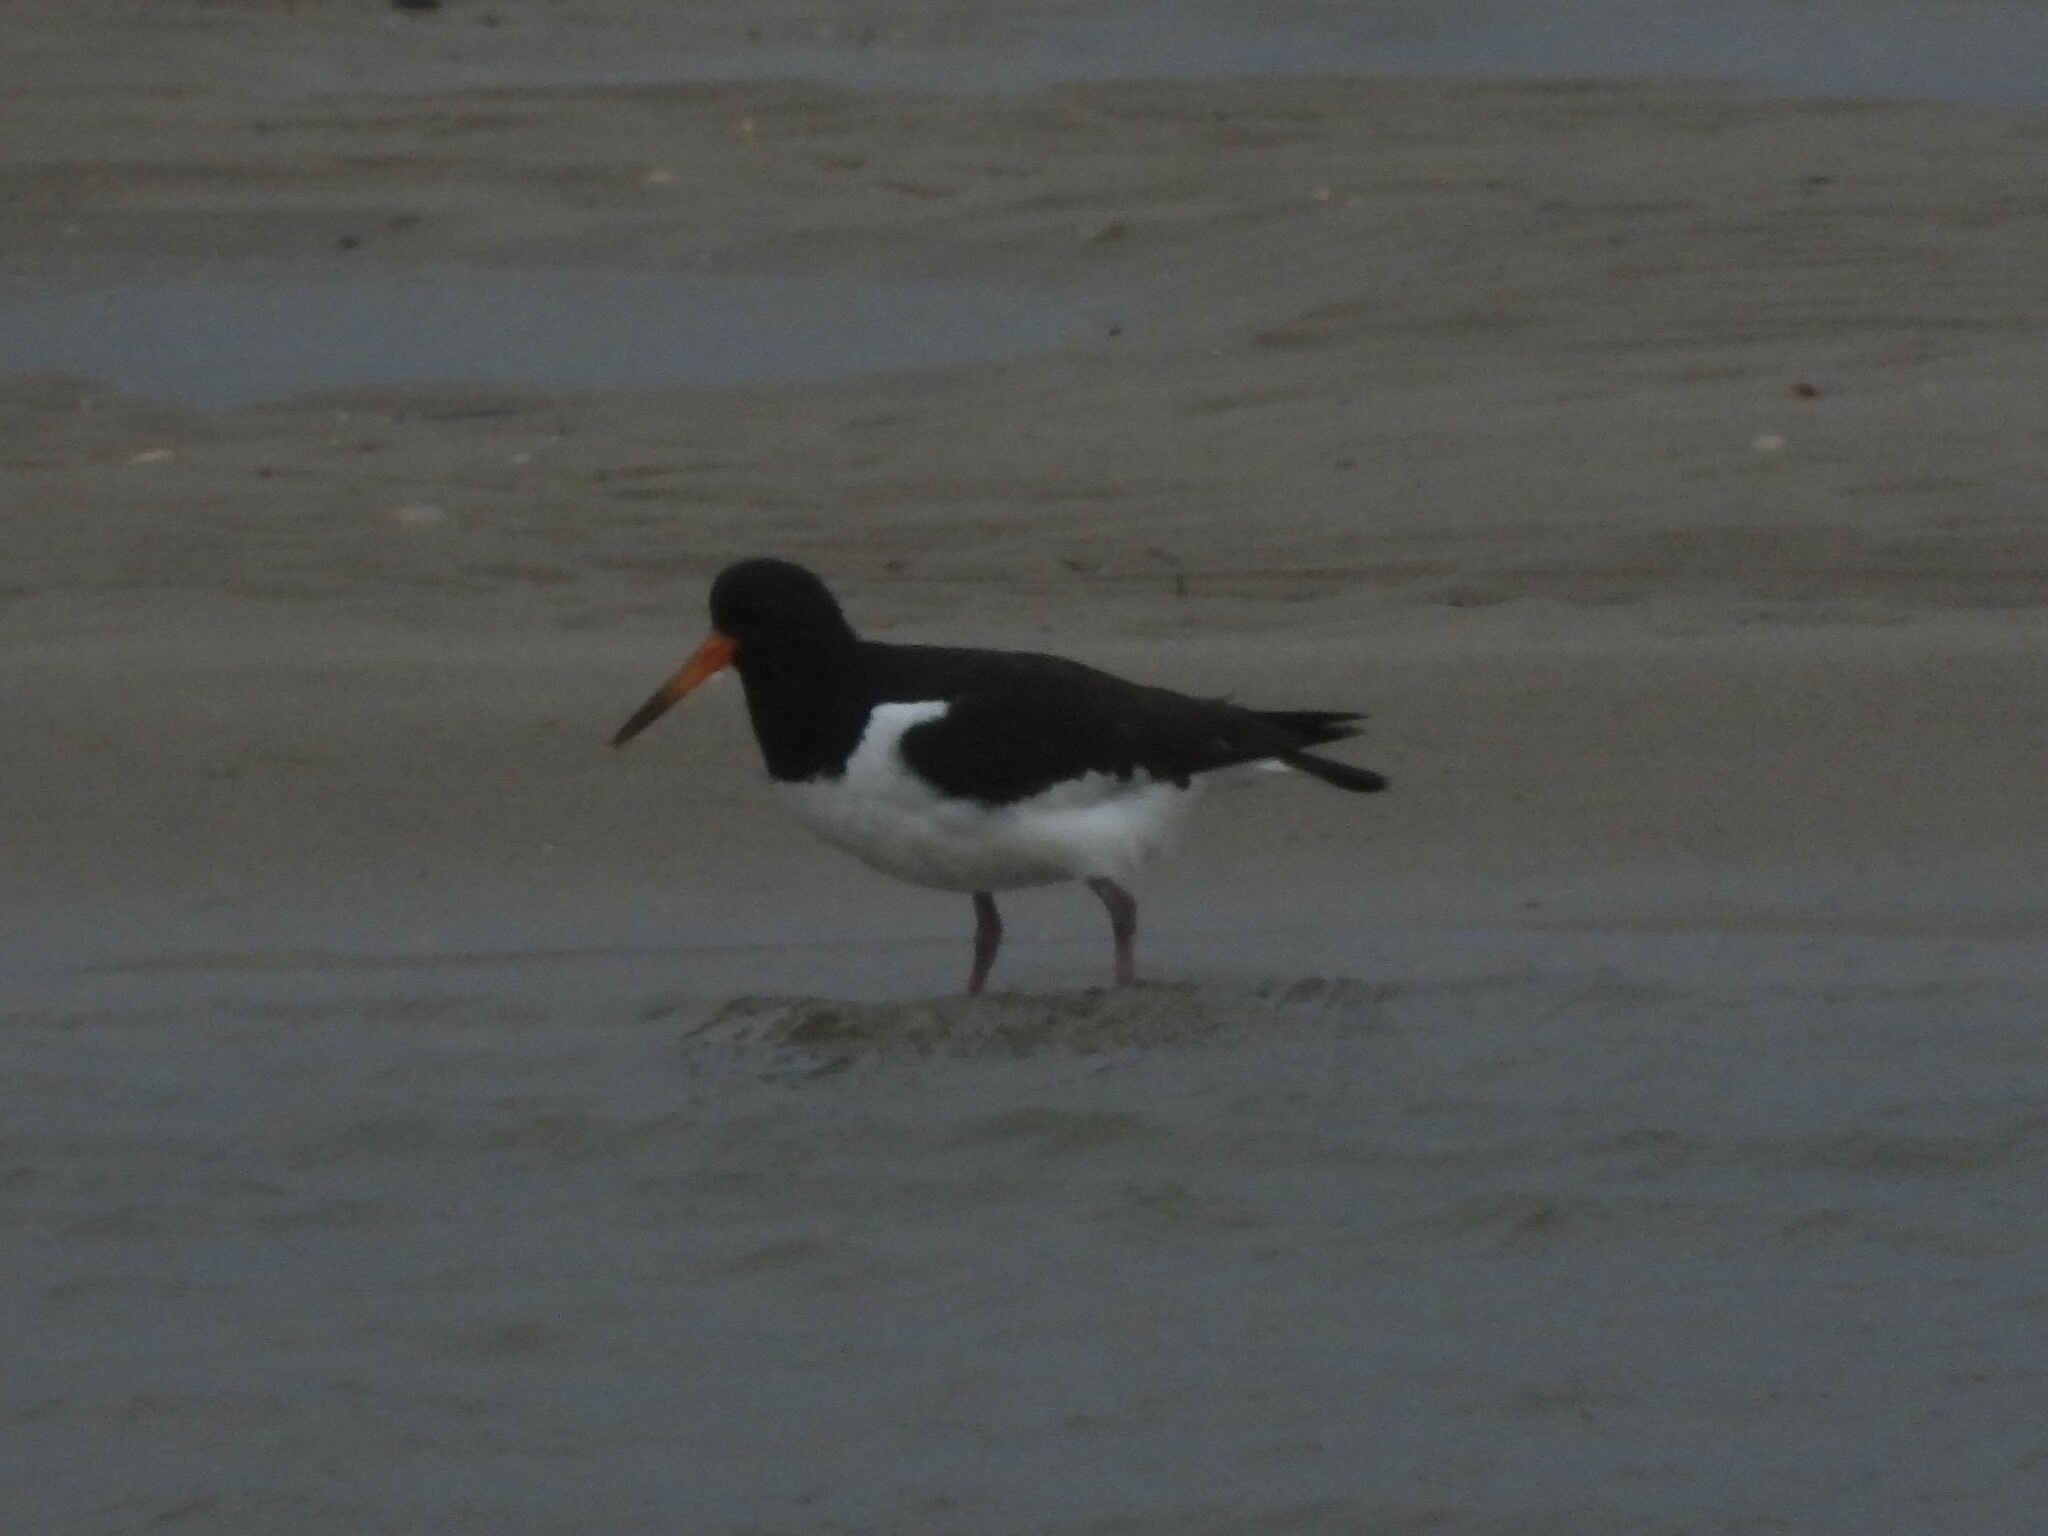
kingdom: Animalia
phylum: Chordata
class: Aves
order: Charadriiformes
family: Haematopodidae
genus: Haematopus
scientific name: Haematopus ostralegus
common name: Eurasian oystercatcher
